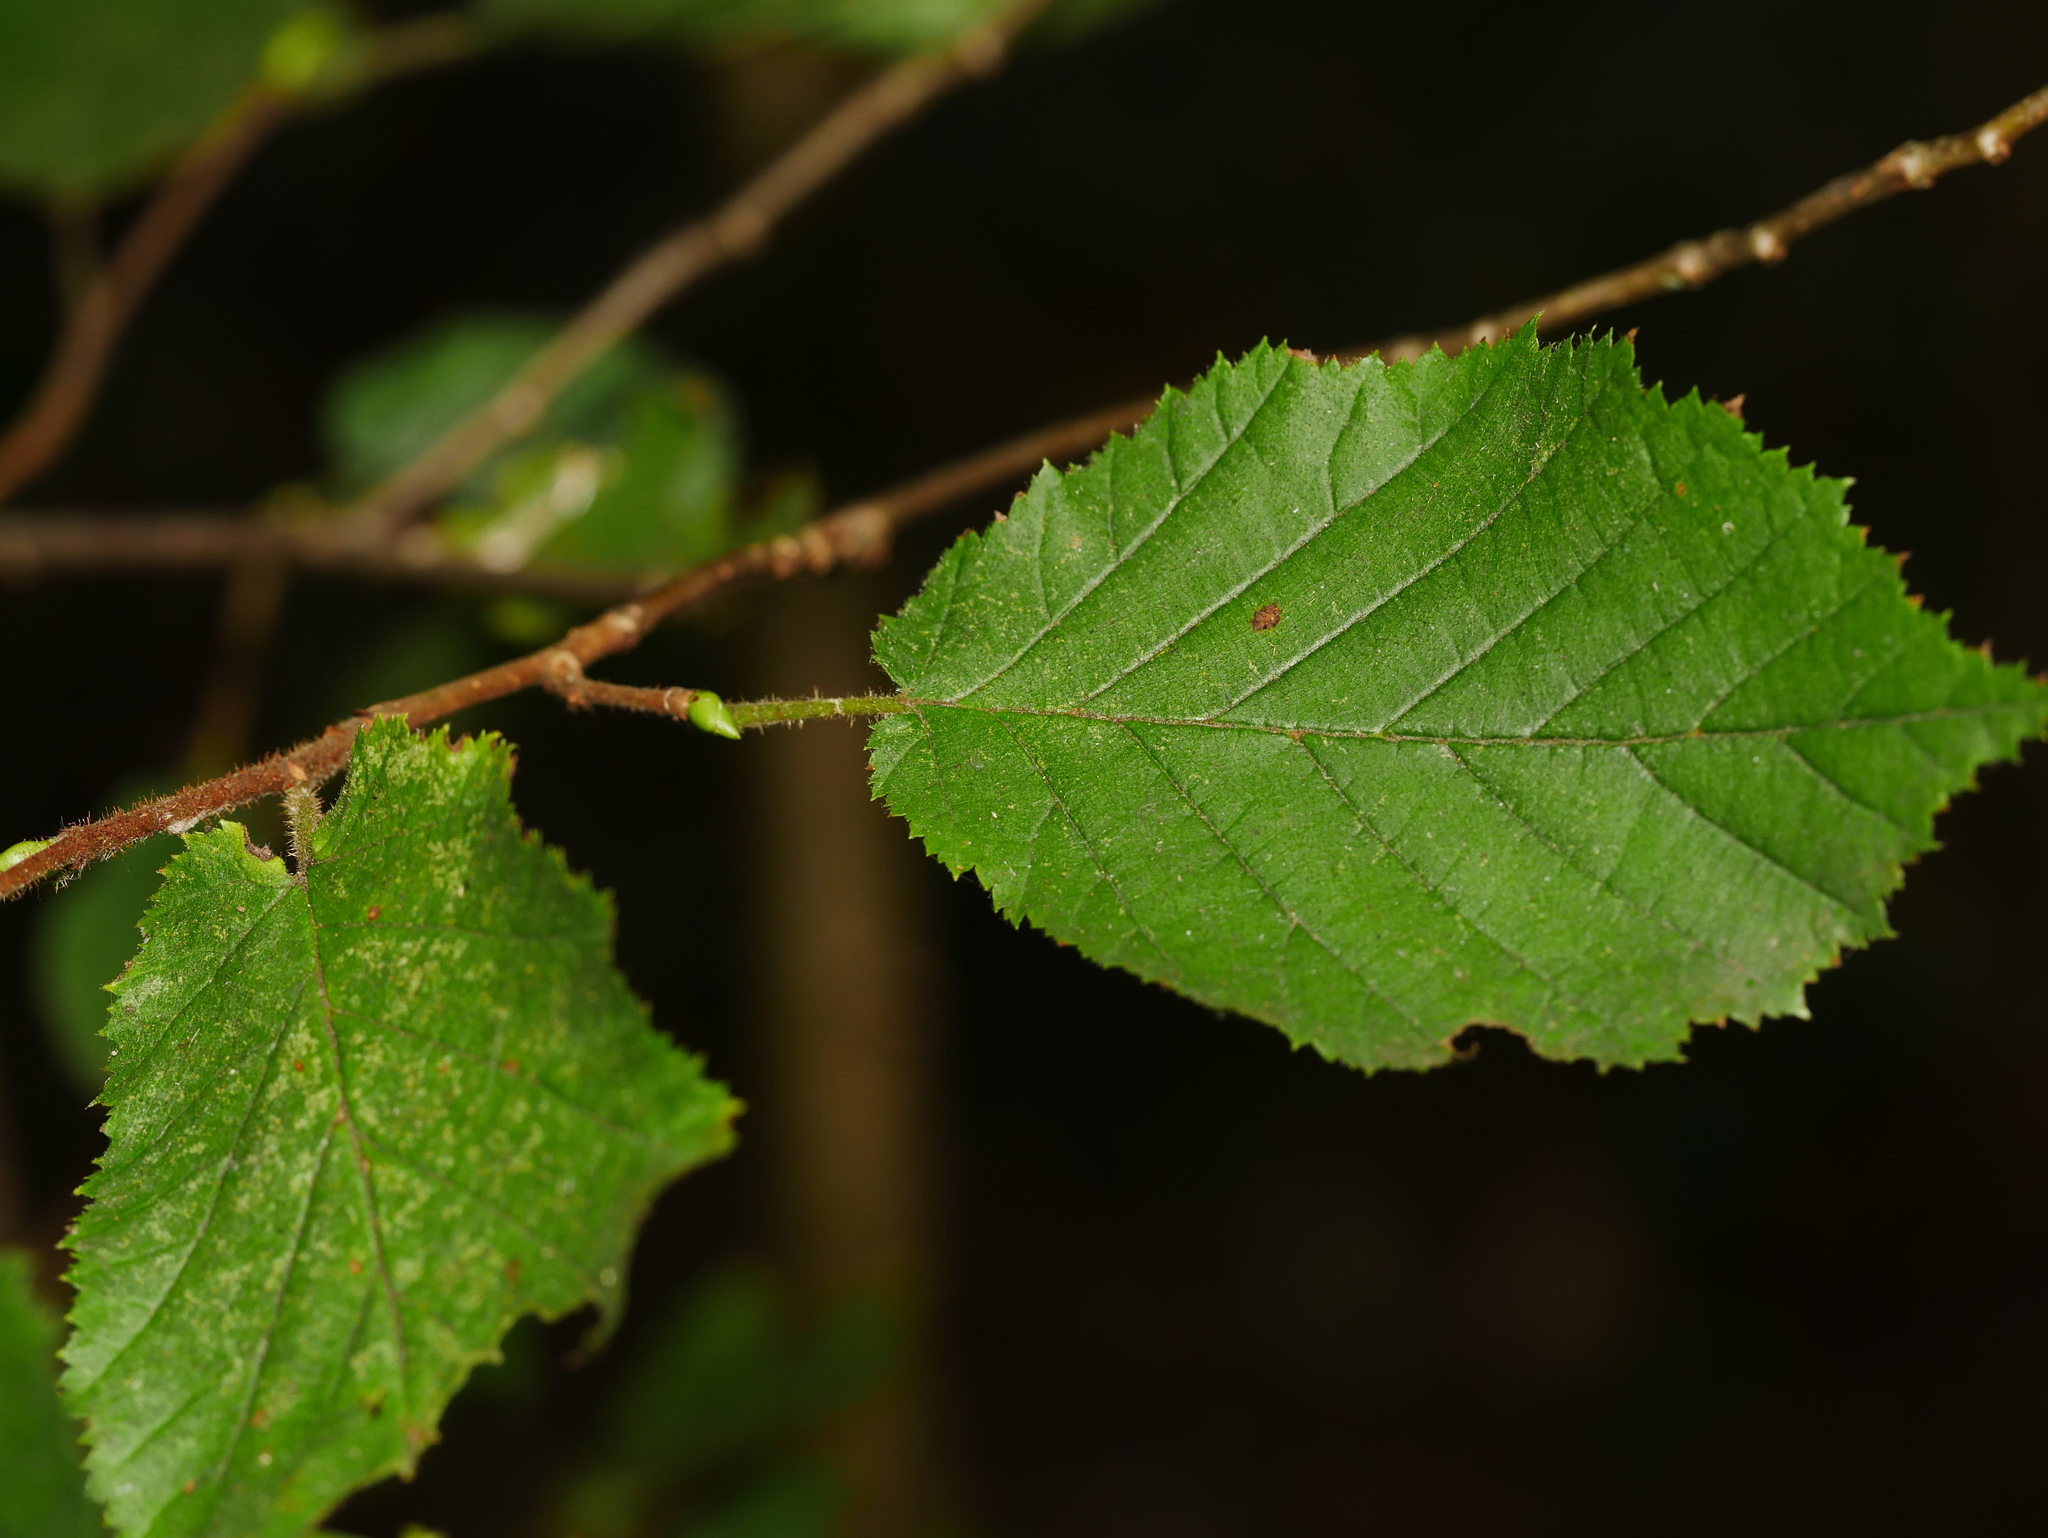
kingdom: Plantae
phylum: Tracheophyta
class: Magnoliopsida
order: Fagales
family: Betulaceae
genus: Corylus
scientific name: Corylus avellana
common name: European hazel
